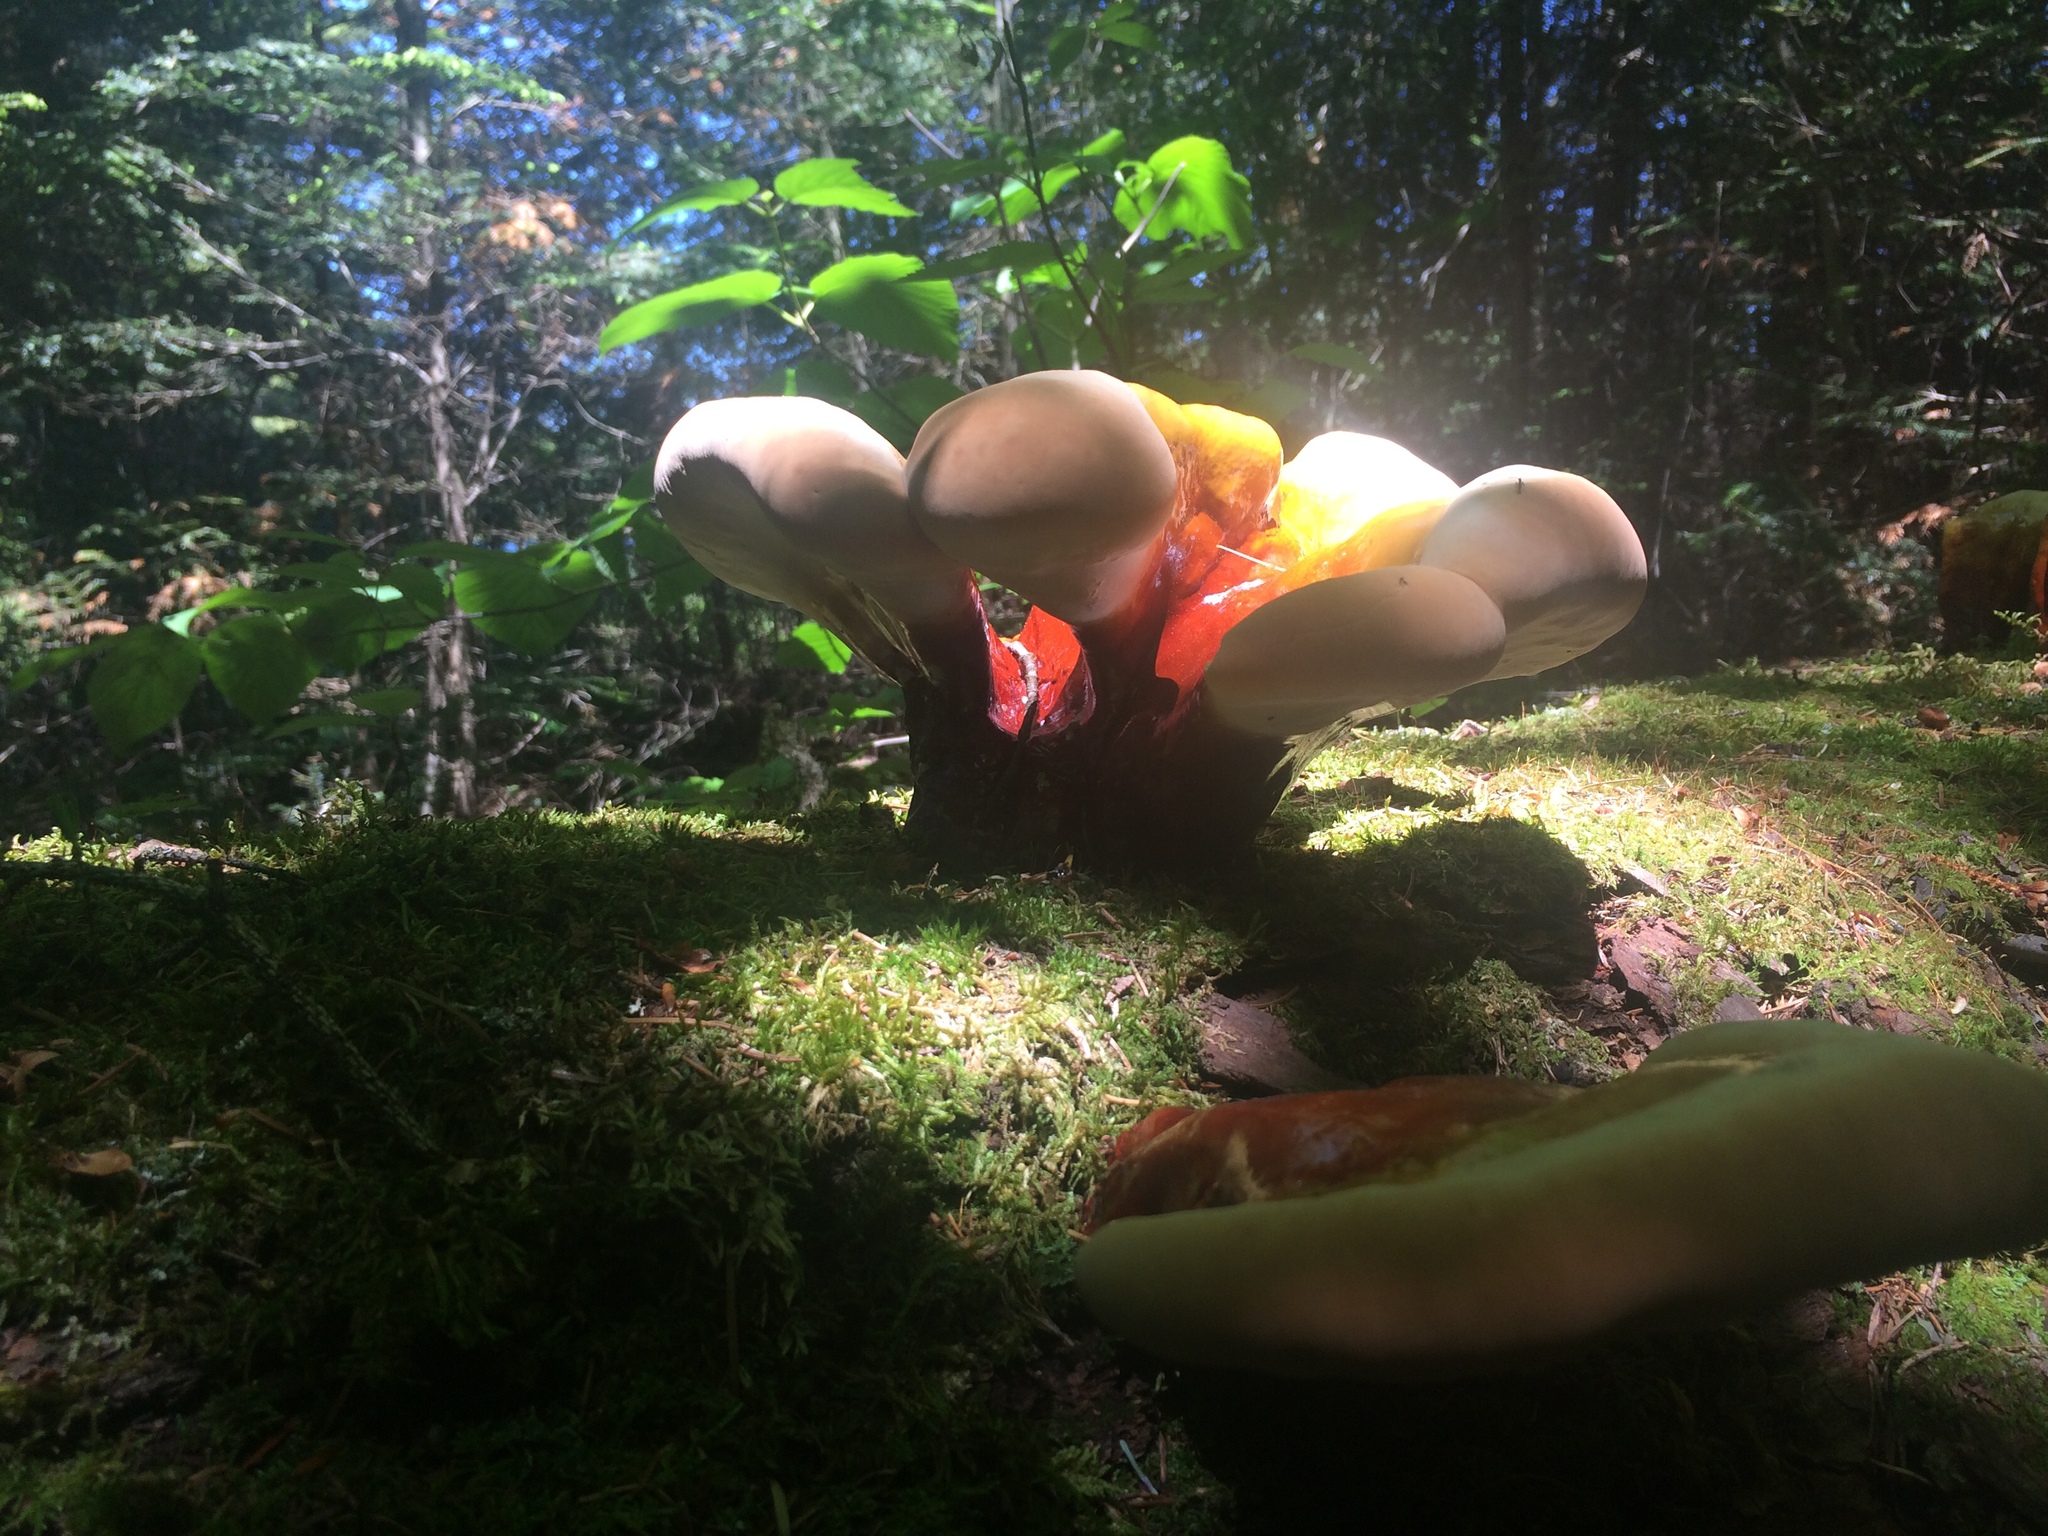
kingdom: Fungi
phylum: Basidiomycota
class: Agaricomycetes
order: Polyporales
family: Polyporaceae
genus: Ganoderma
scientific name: Ganoderma tsugae
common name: Hemlock varnish shelf
